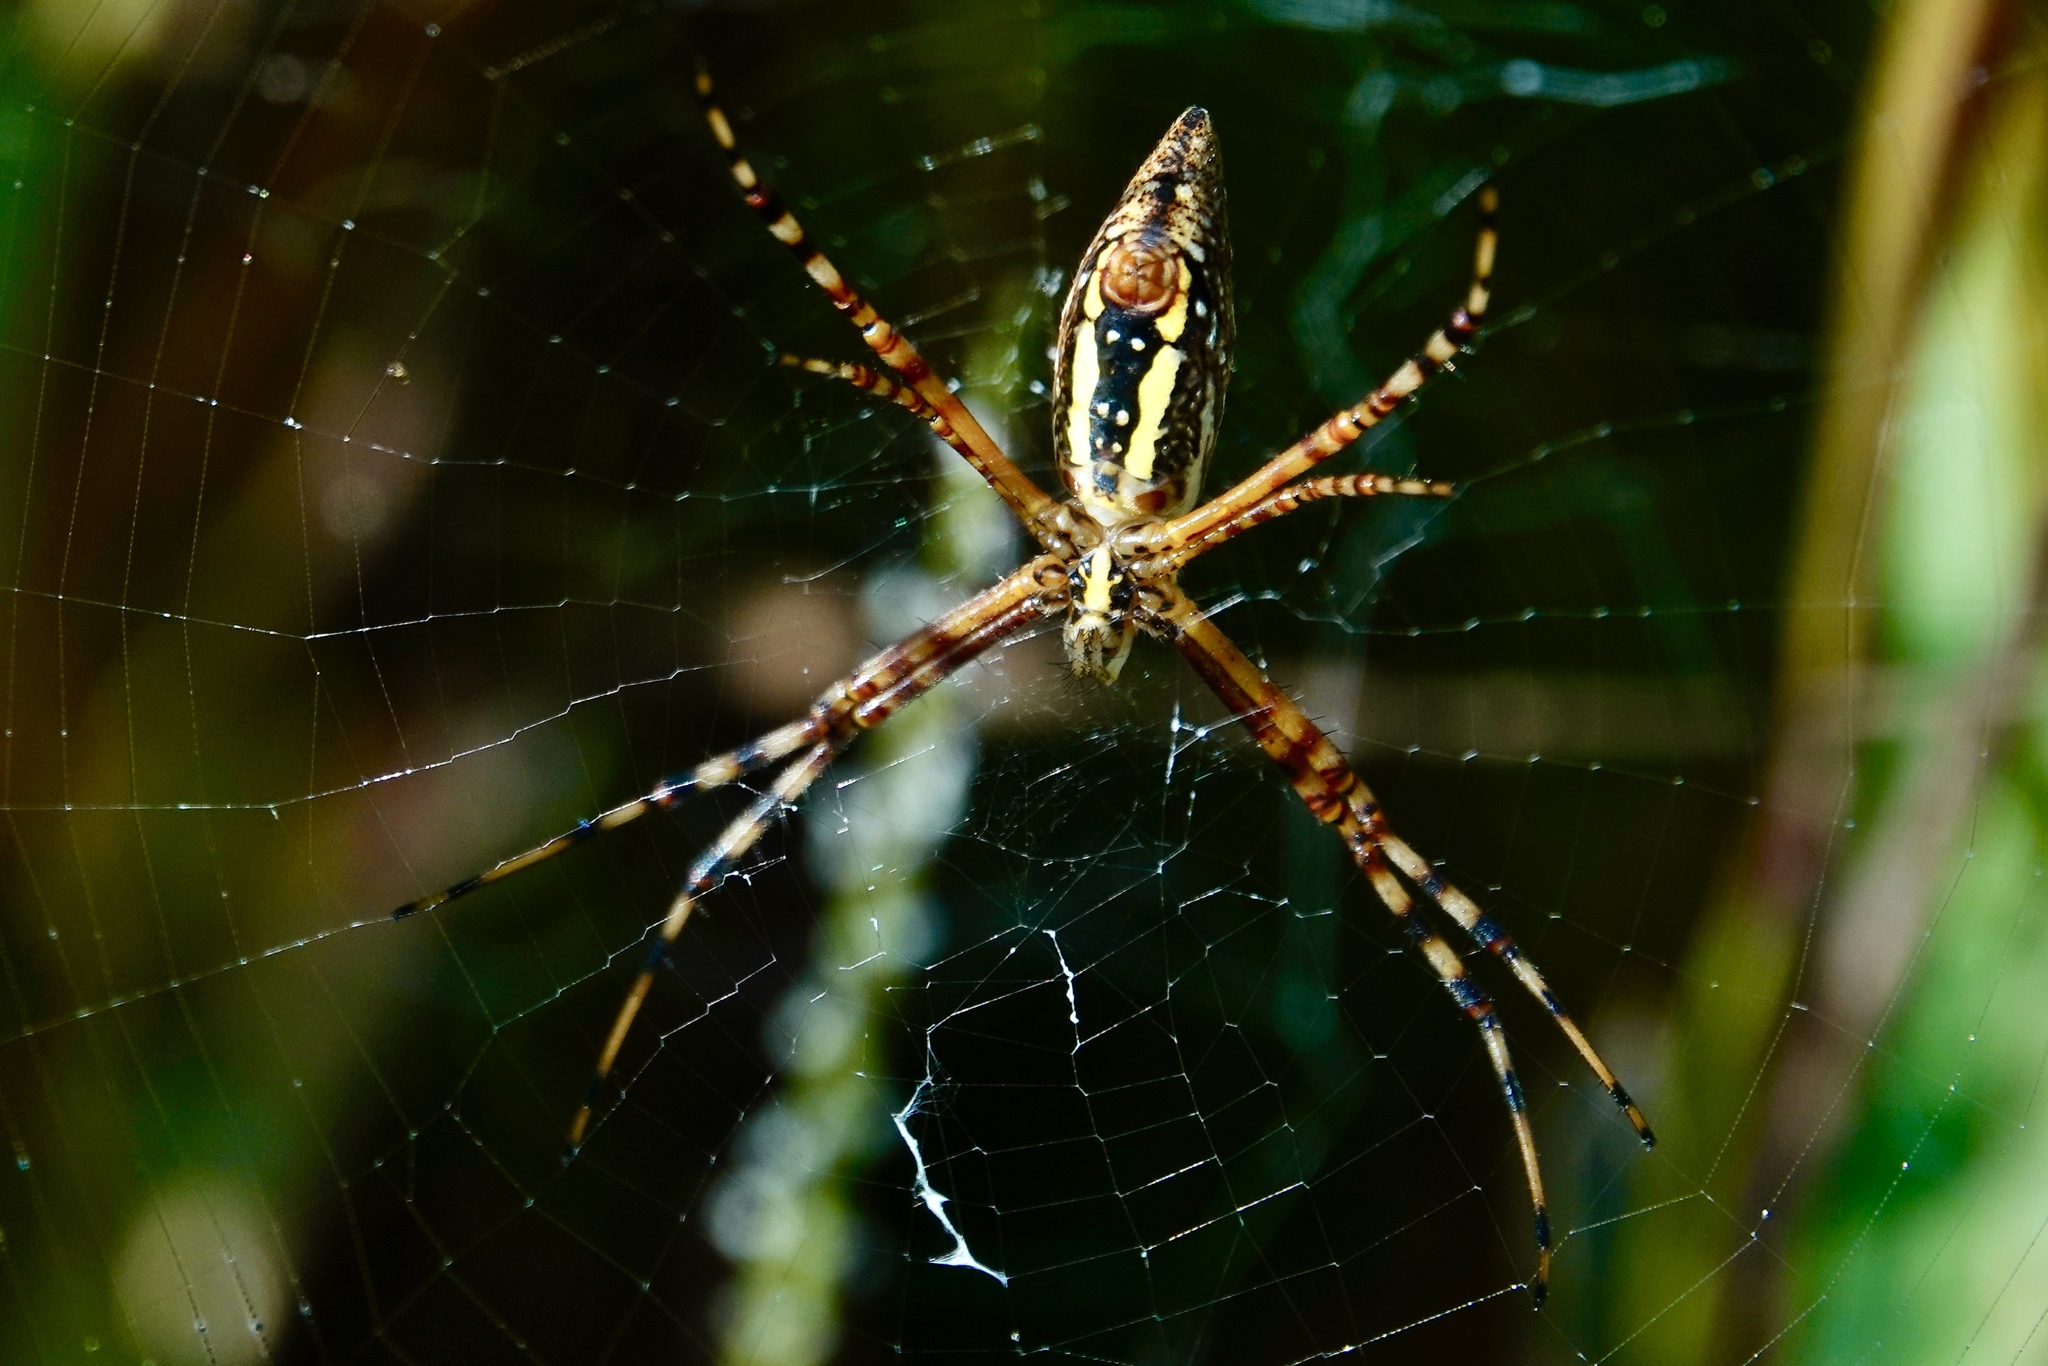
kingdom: Animalia
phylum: Arthropoda
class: Arachnida
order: Araneae
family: Araneidae
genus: Argiope
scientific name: Argiope trifasciata
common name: Banded garden spider
